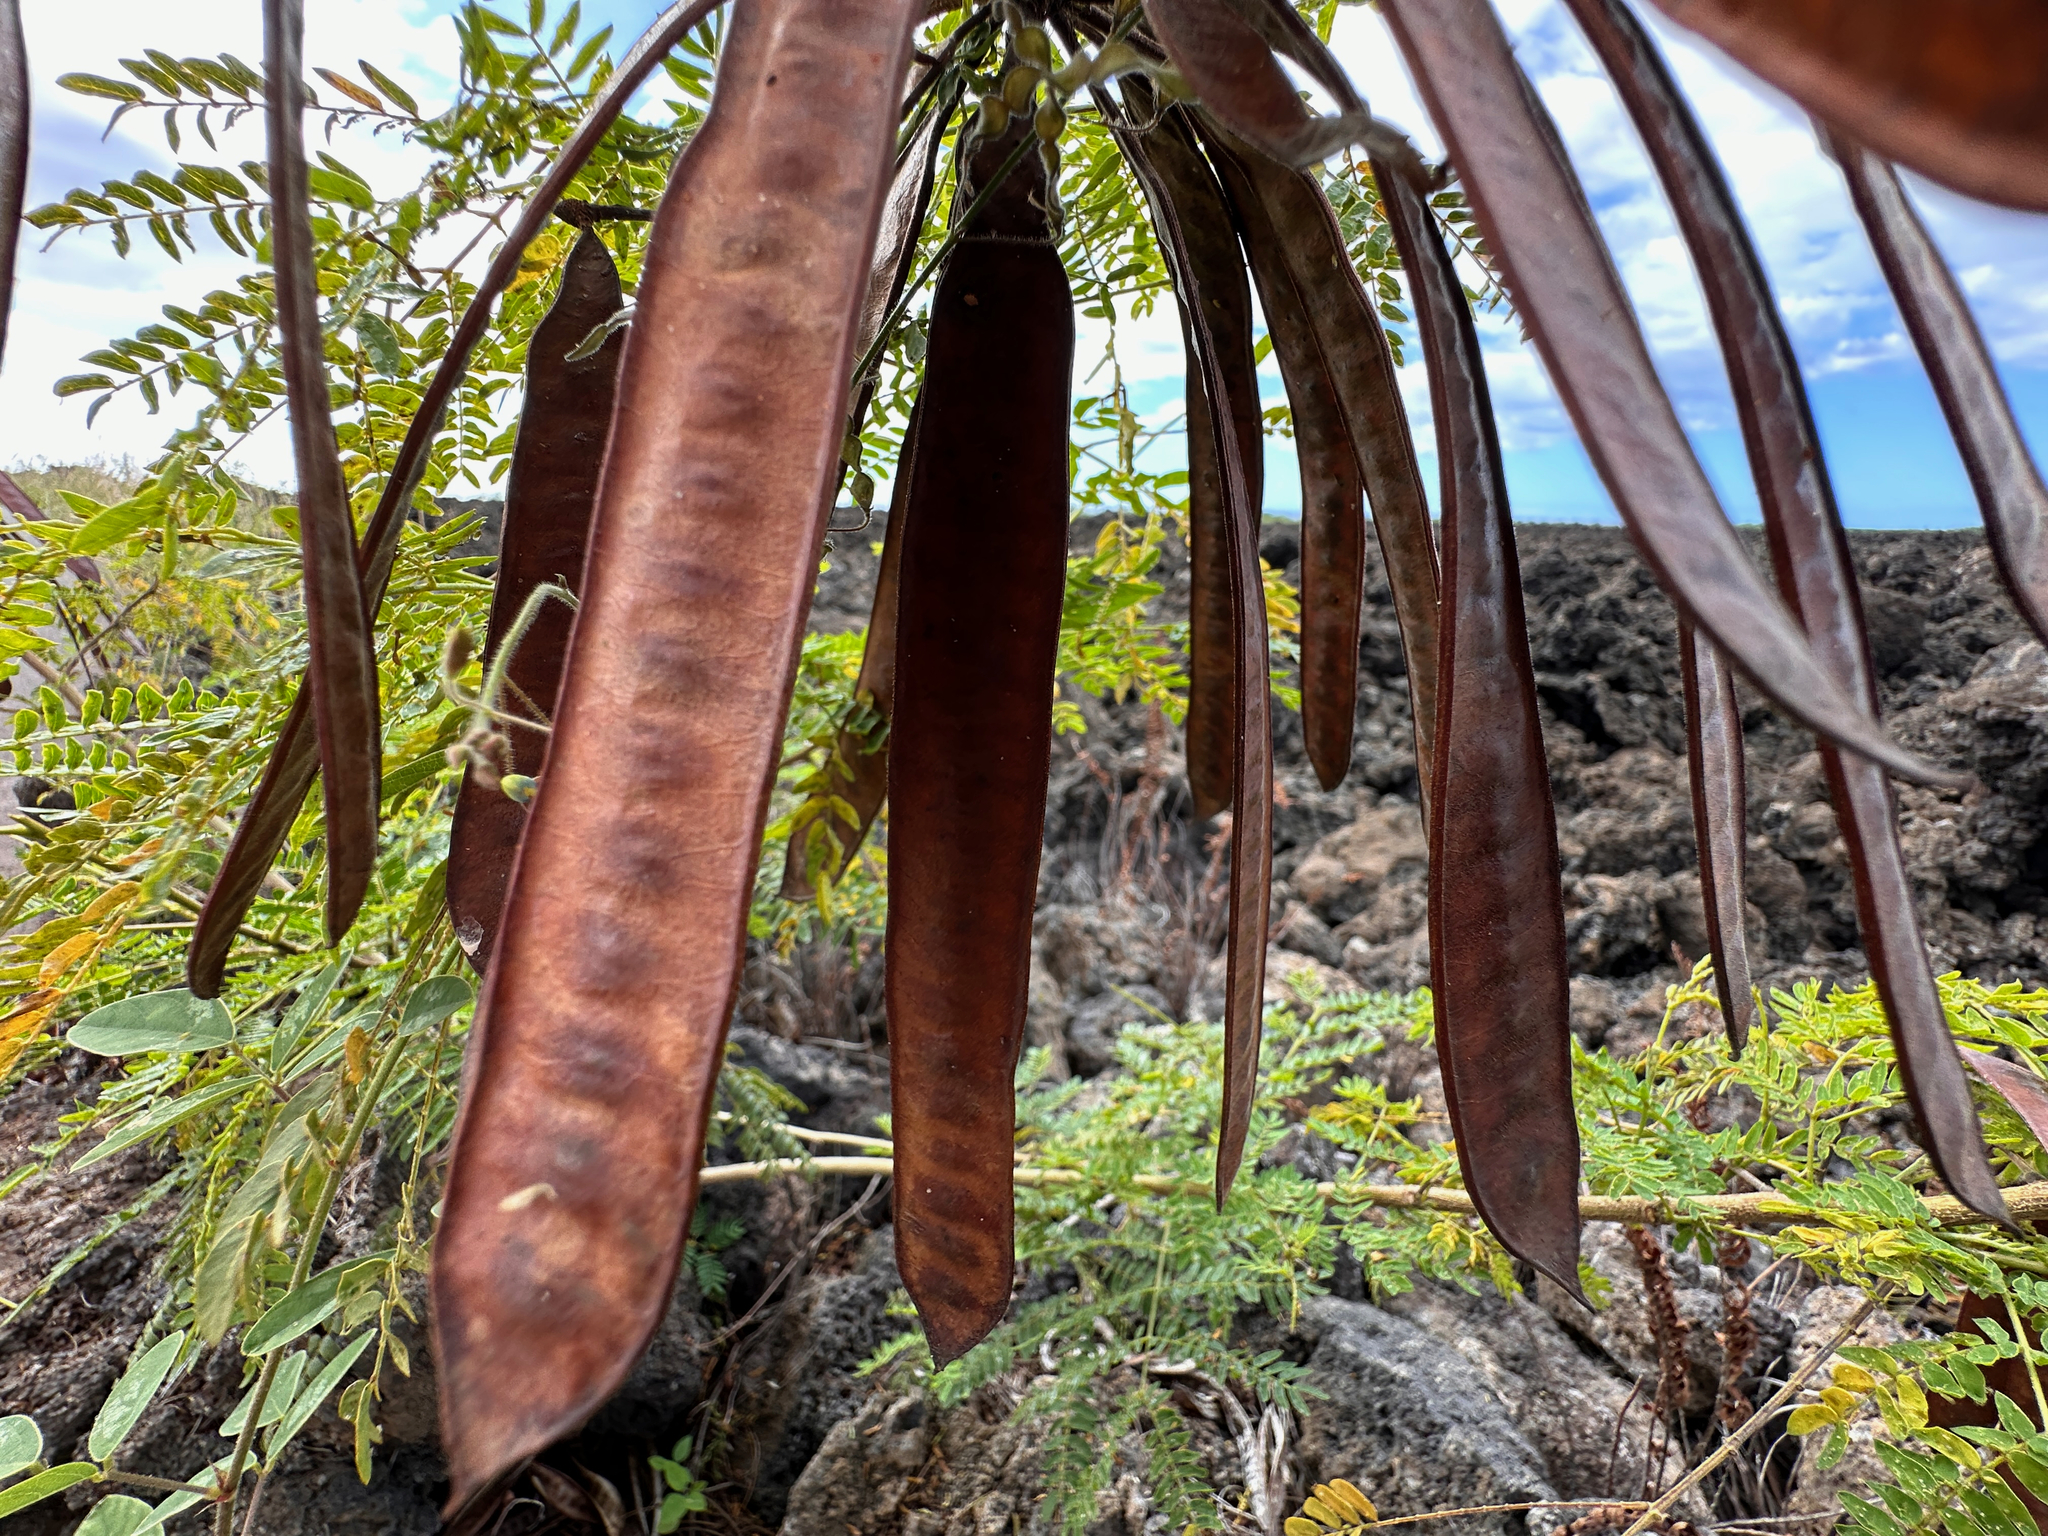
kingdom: Plantae
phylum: Tracheophyta
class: Magnoliopsida
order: Fabales
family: Fabaceae
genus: Leucaena
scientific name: Leucaena leucocephala
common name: White leadtree
